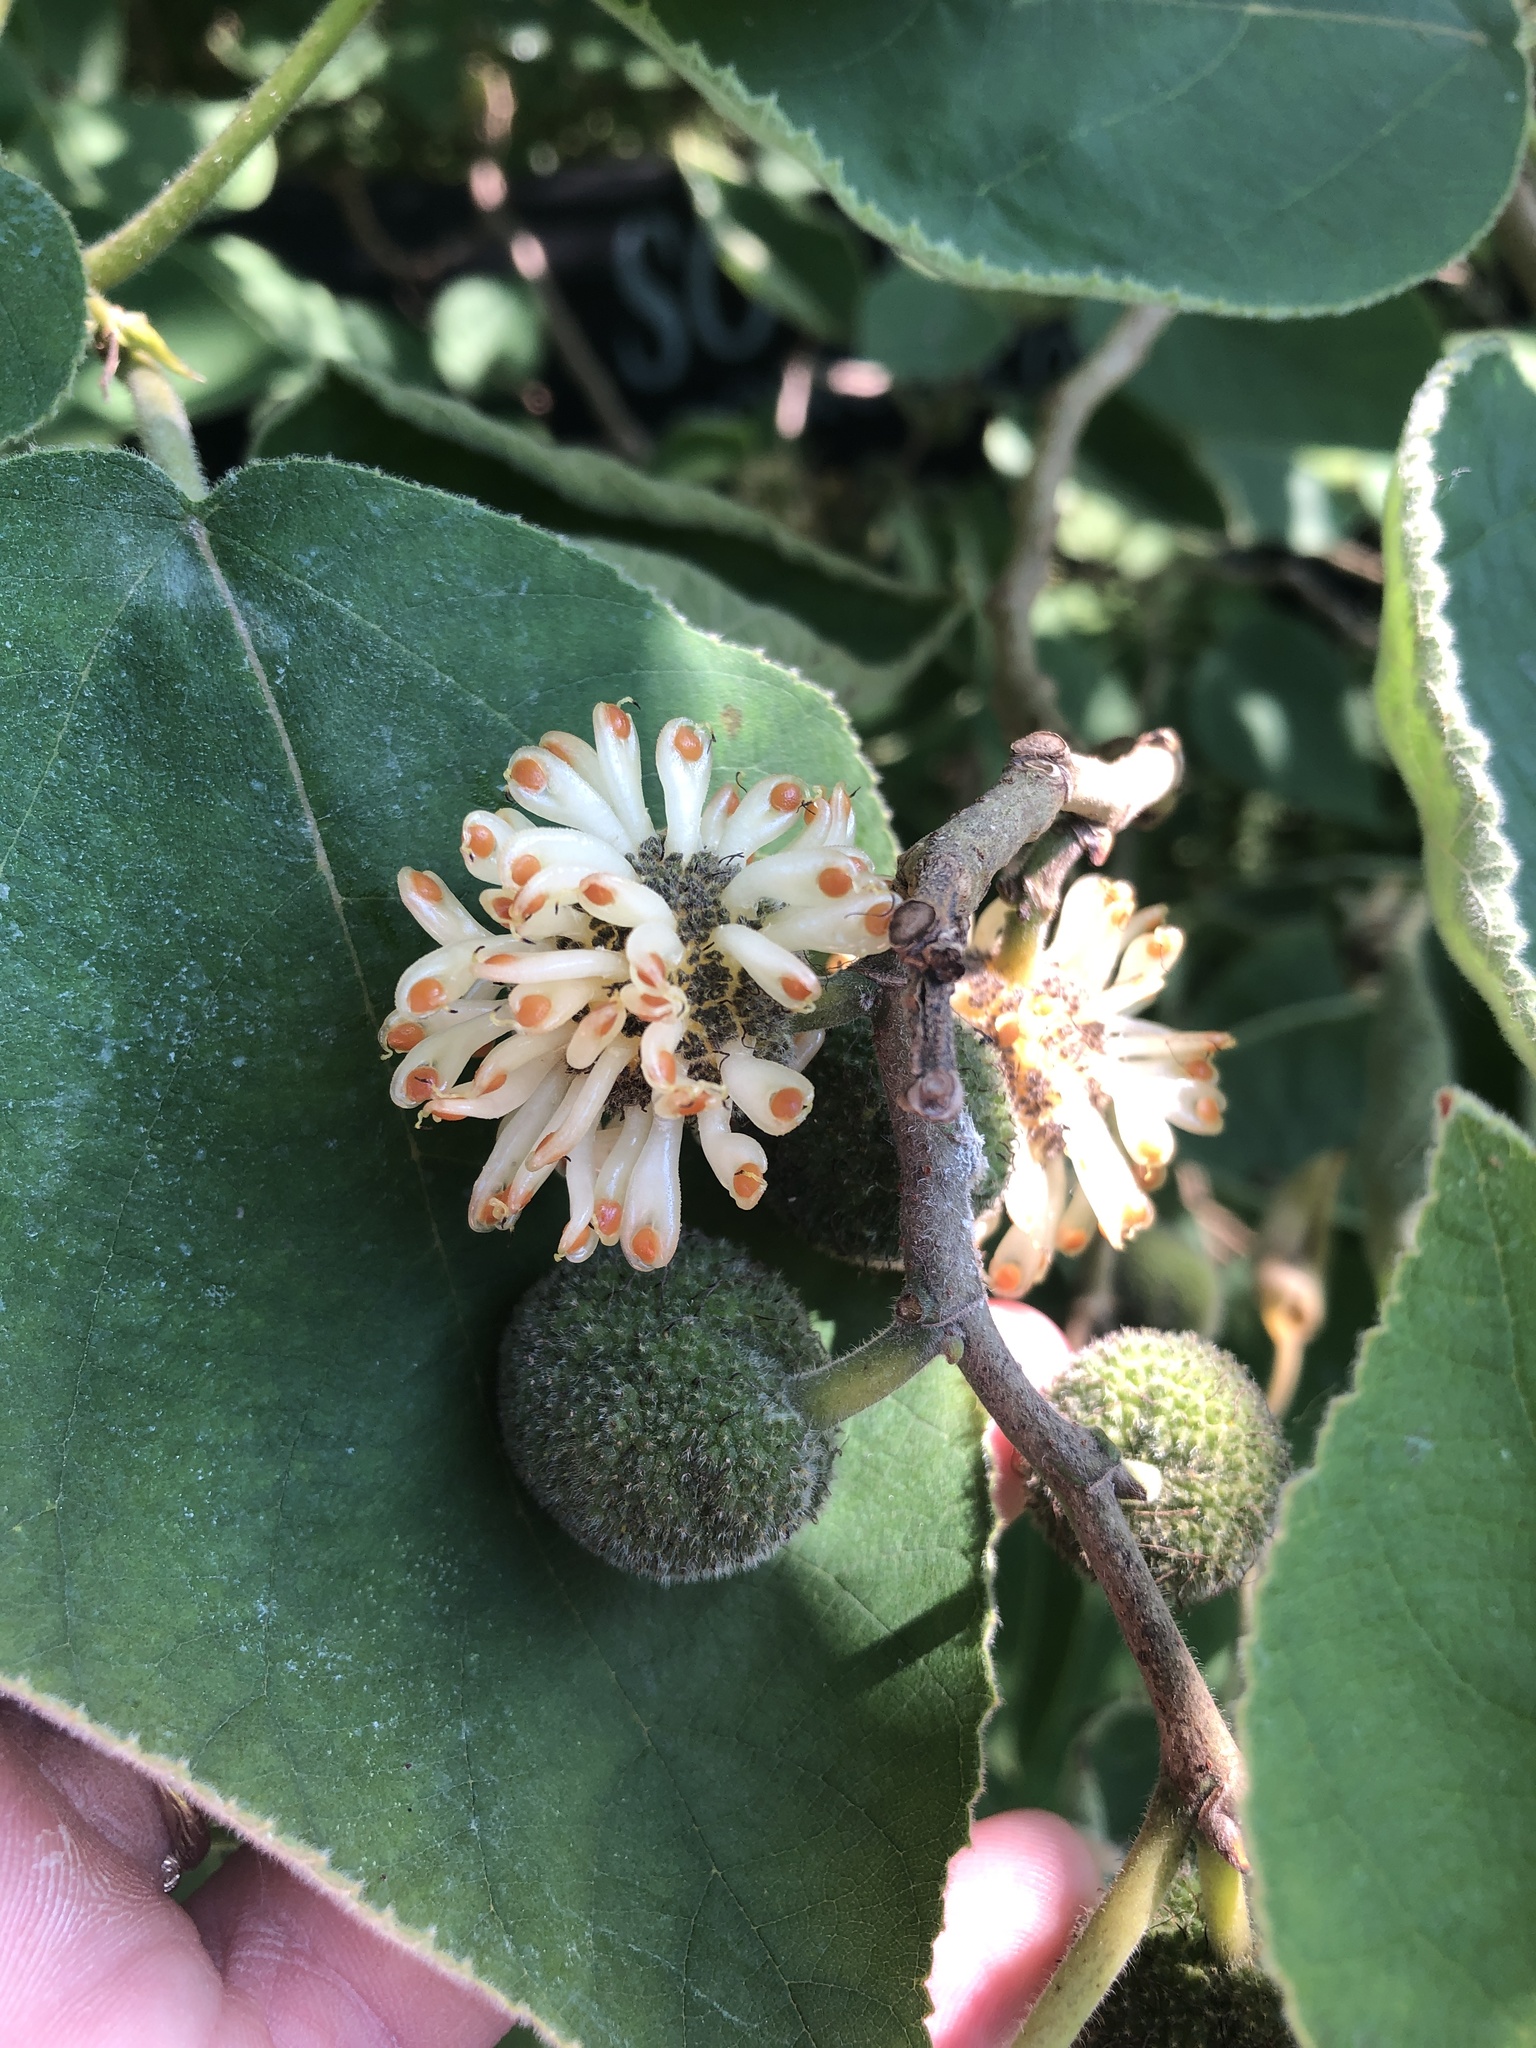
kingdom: Plantae
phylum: Tracheophyta
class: Magnoliopsida
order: Rosales
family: Moraceae
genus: Broussonetia
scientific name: Broussonetia papyrifera
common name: Paper mulberry
